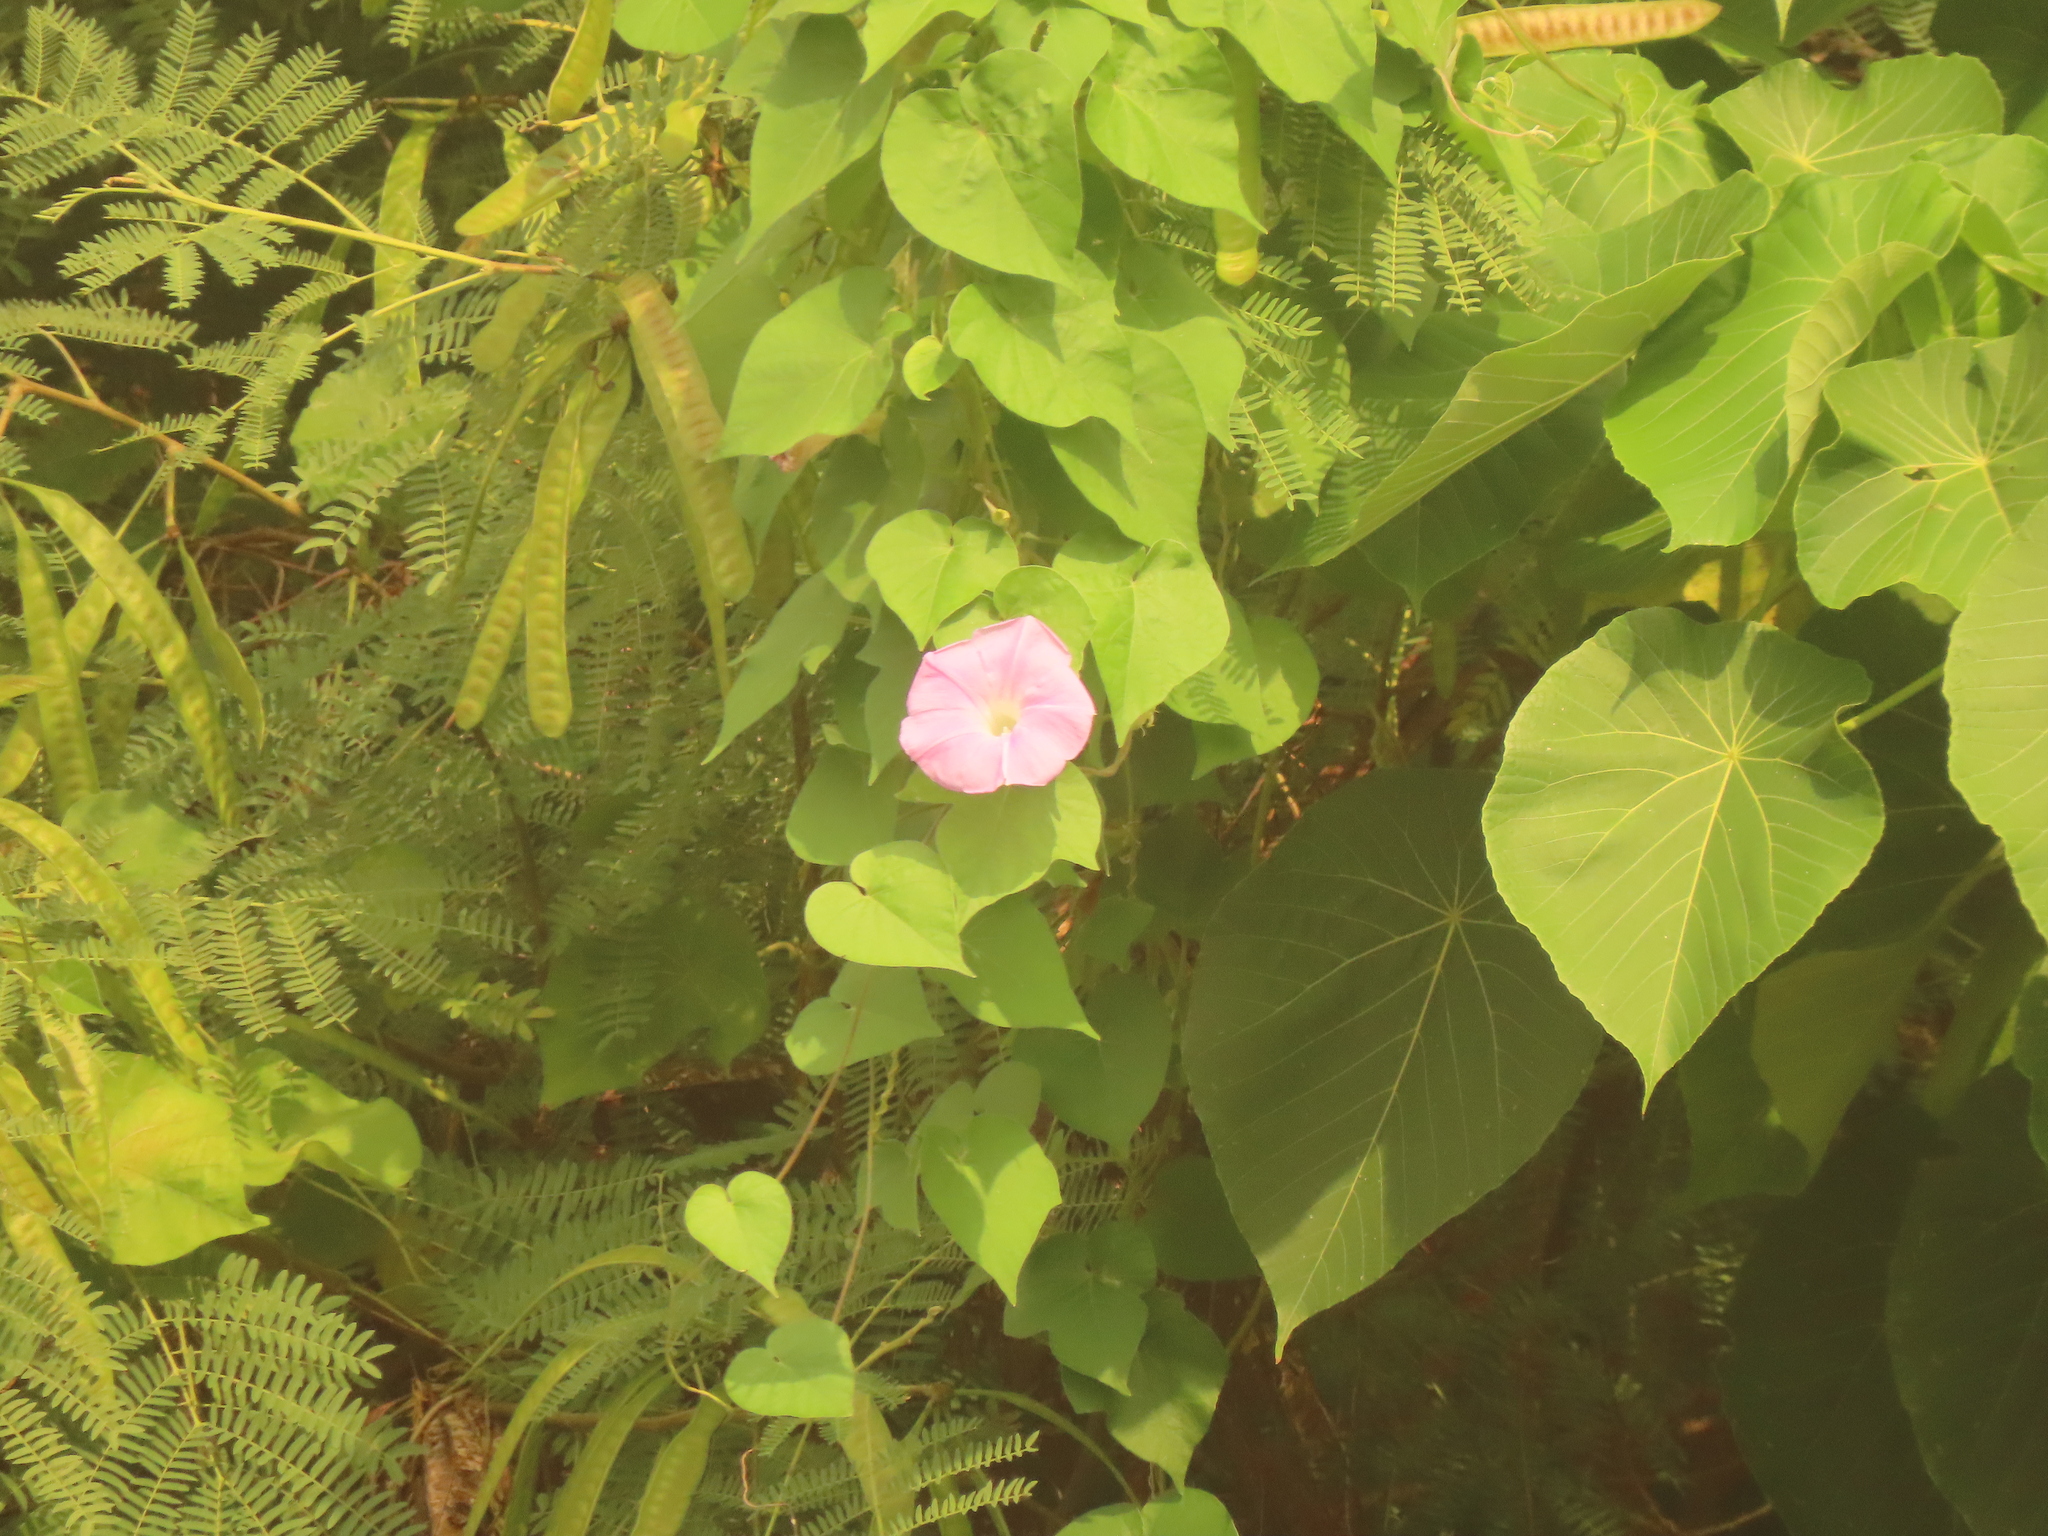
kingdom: Plantae
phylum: Tracheophyta
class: Magnoliopsida
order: Malpighiales
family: Euphorbiaceae
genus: Macaranga
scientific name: Macaranga tanarius
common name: Parasol leaf tree
